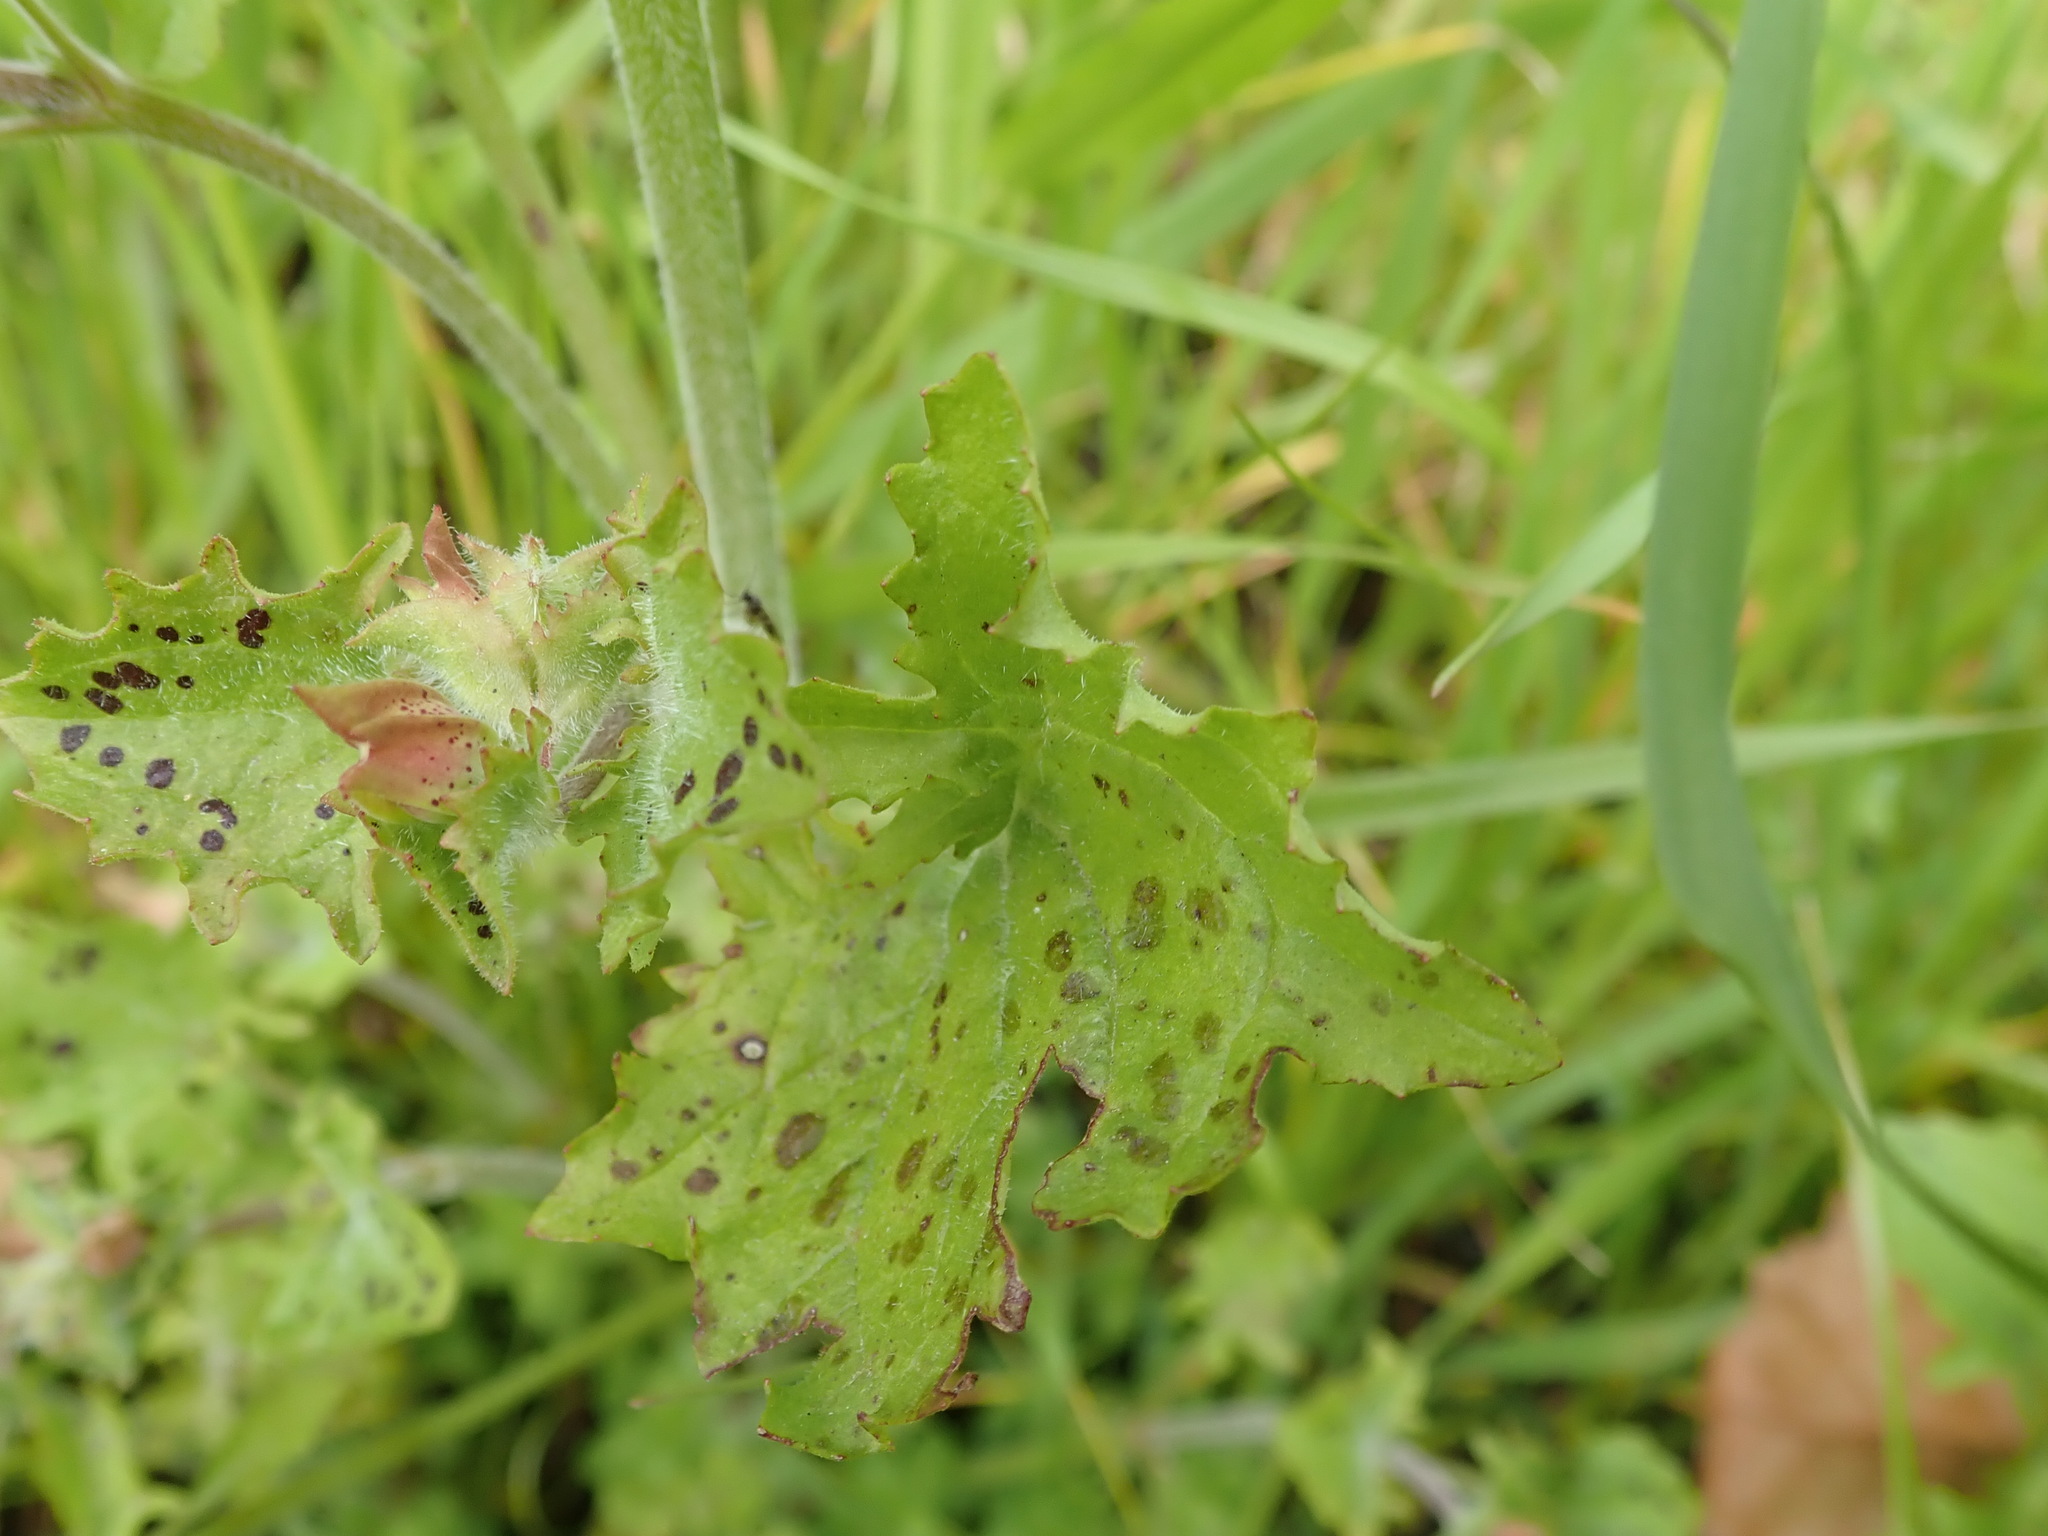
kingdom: Plantae
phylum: Tracheophyta
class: Magnoliopsida
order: Lamiales
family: Phrymaceae
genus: Erythranthe
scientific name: Erythranthe guttata
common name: Monkeyflower
